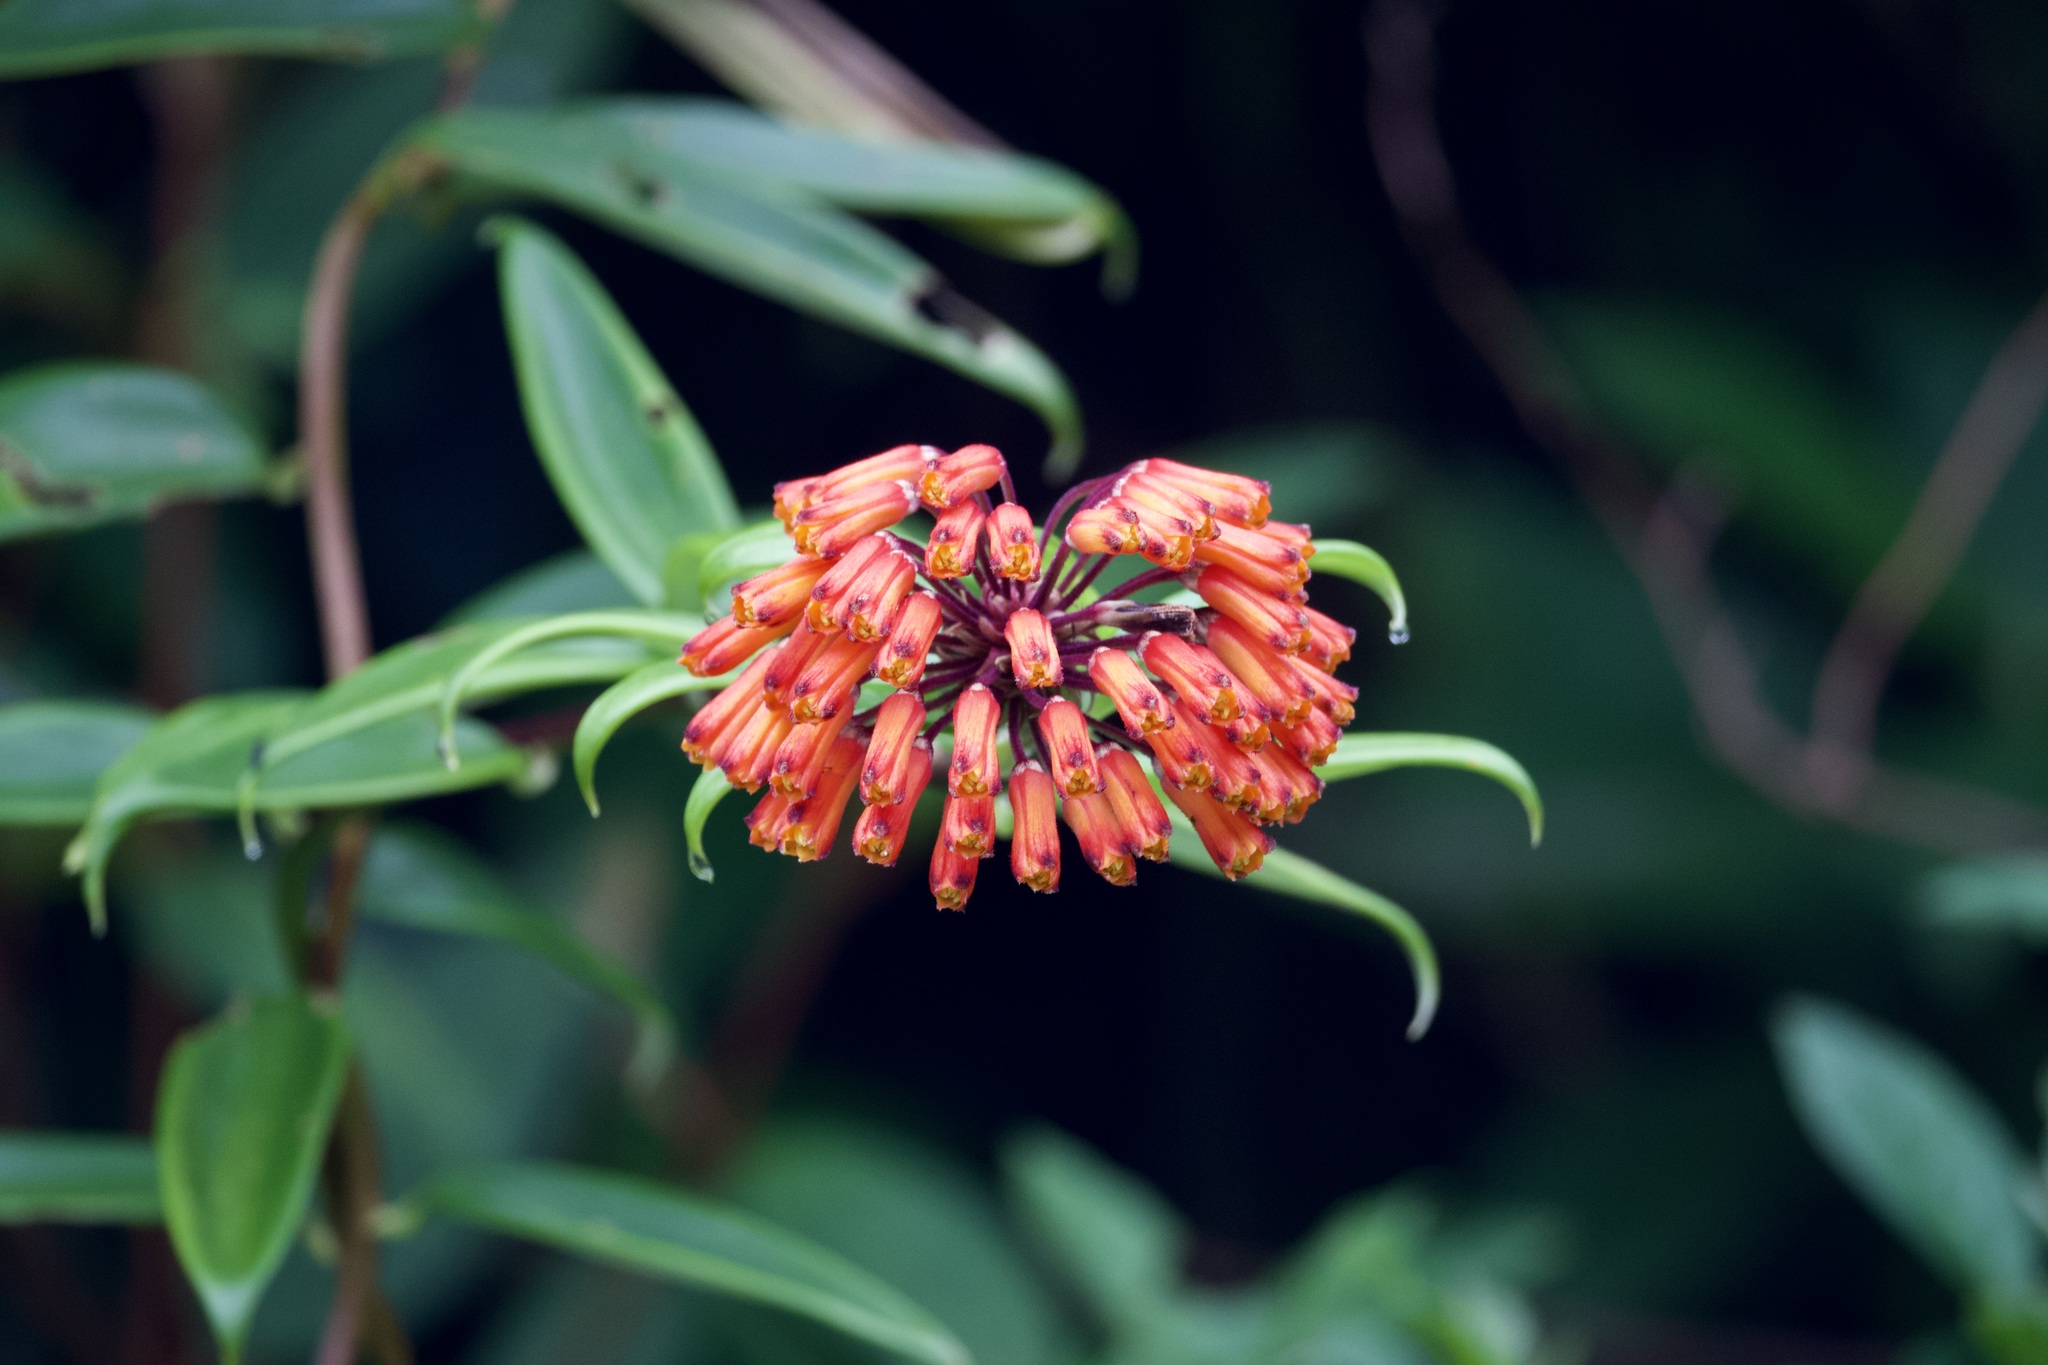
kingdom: Plantae
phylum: Tracheophyta
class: Liliopsida
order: Liliales
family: Alstroemeriaceae
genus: Bomarea
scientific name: Bomarea multiflora
